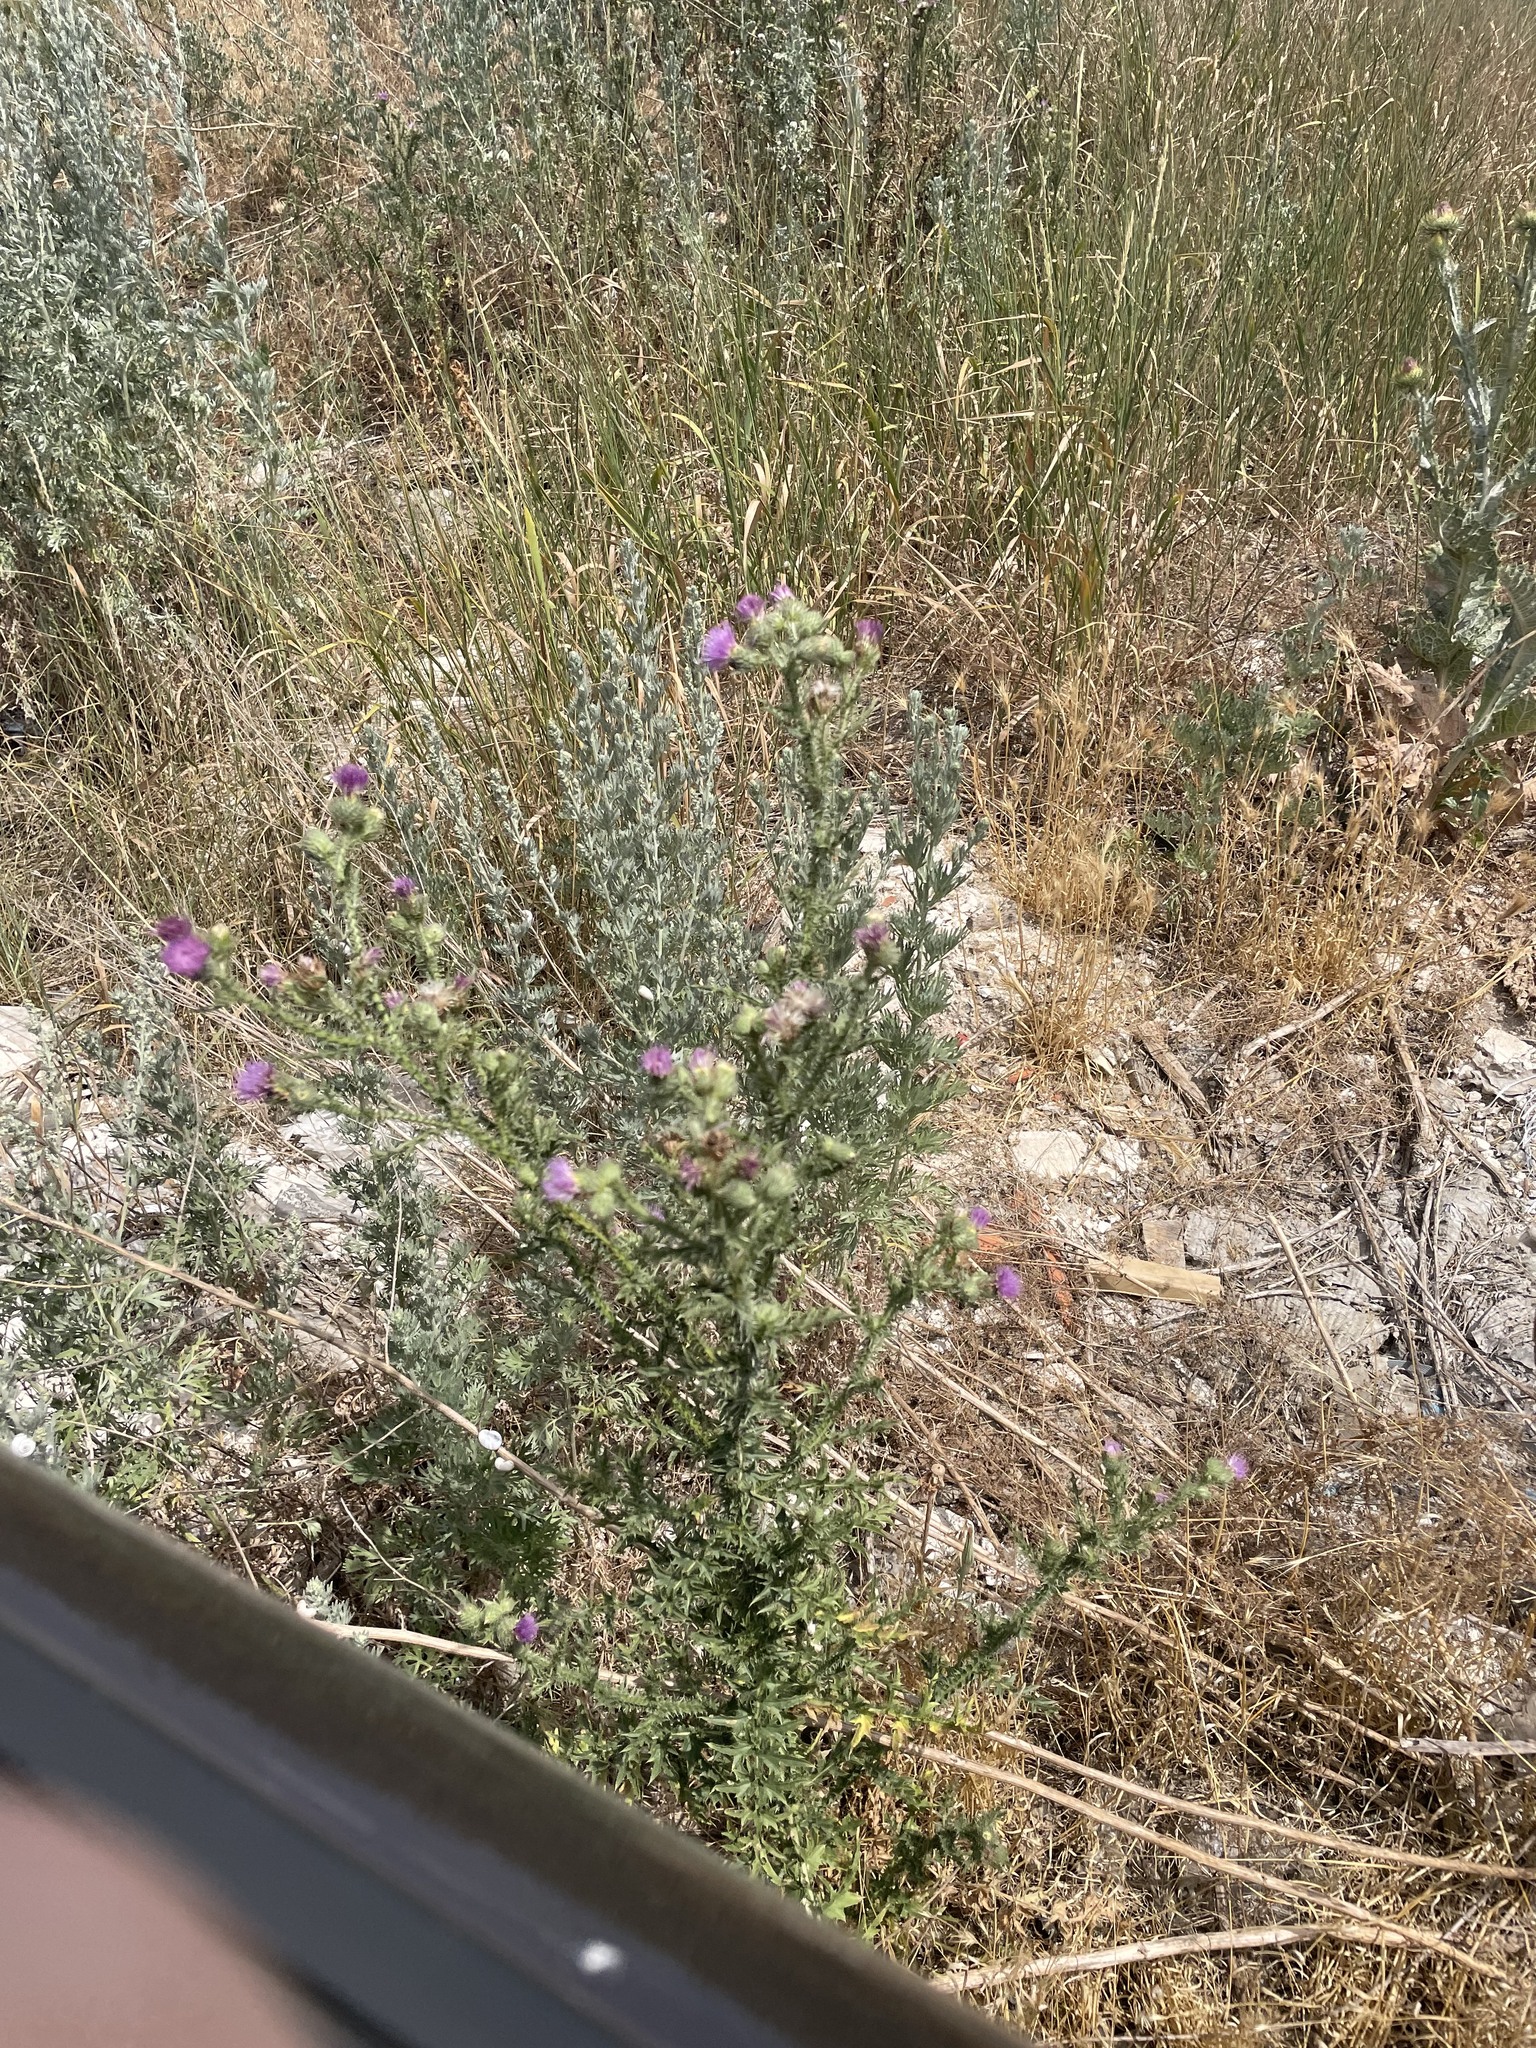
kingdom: Plantae
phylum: Tracheophyta
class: Magnoliopsida
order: Asterales
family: Asteraceae
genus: Carduus
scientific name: Carduus acanthoides
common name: Plumeless thistle
